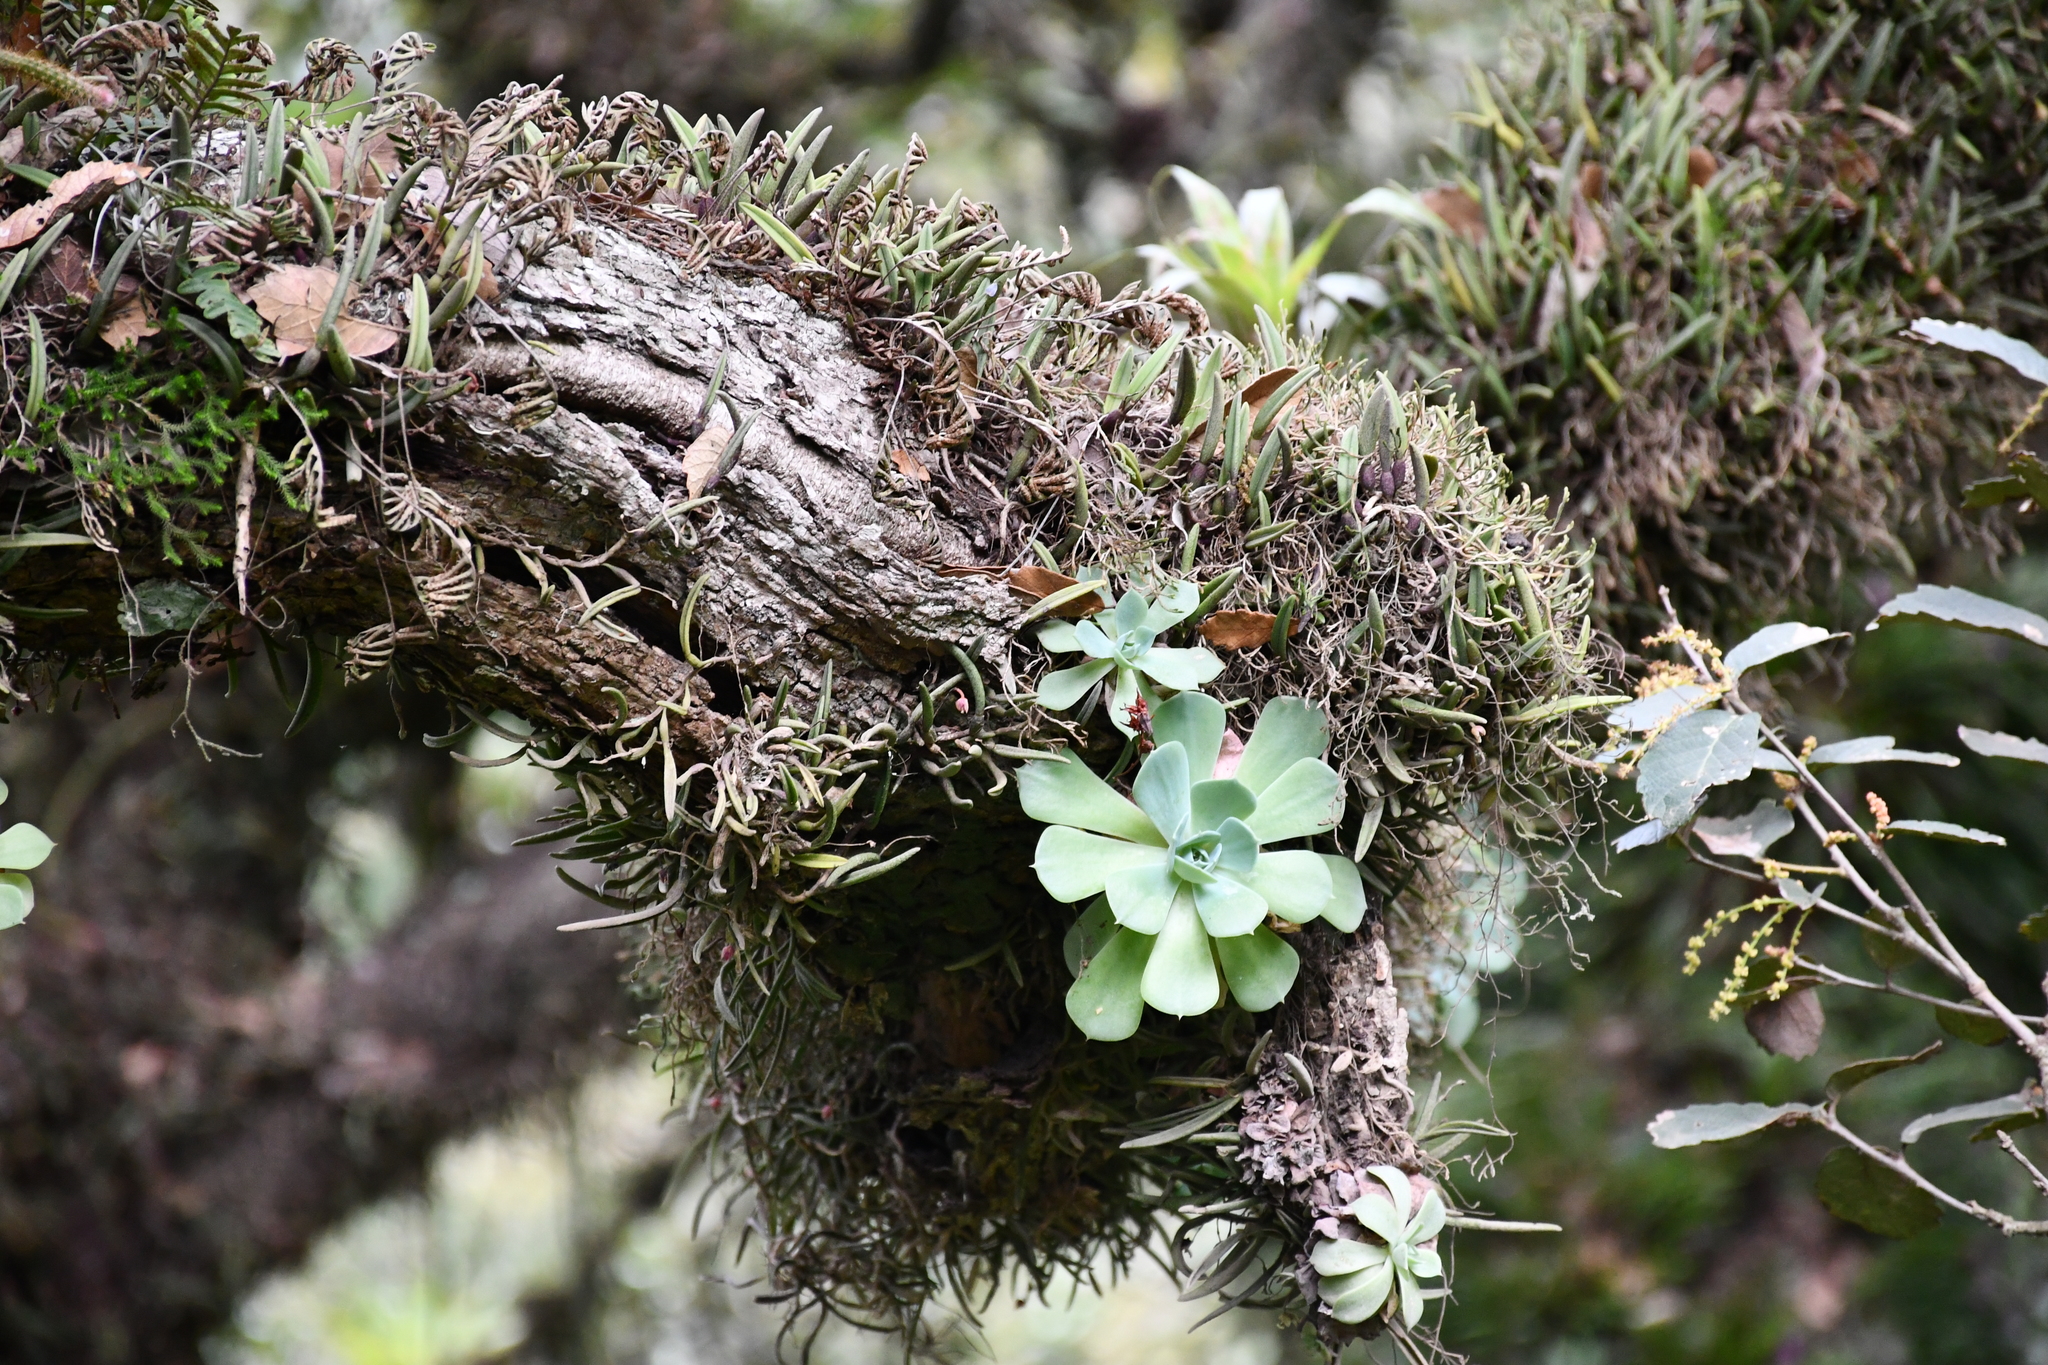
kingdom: Plantae
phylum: Tracheophyta
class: Magnoliopsida
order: Saxifragales
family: Crassulaceae
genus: Echeveria
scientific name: Echeveria secunda
